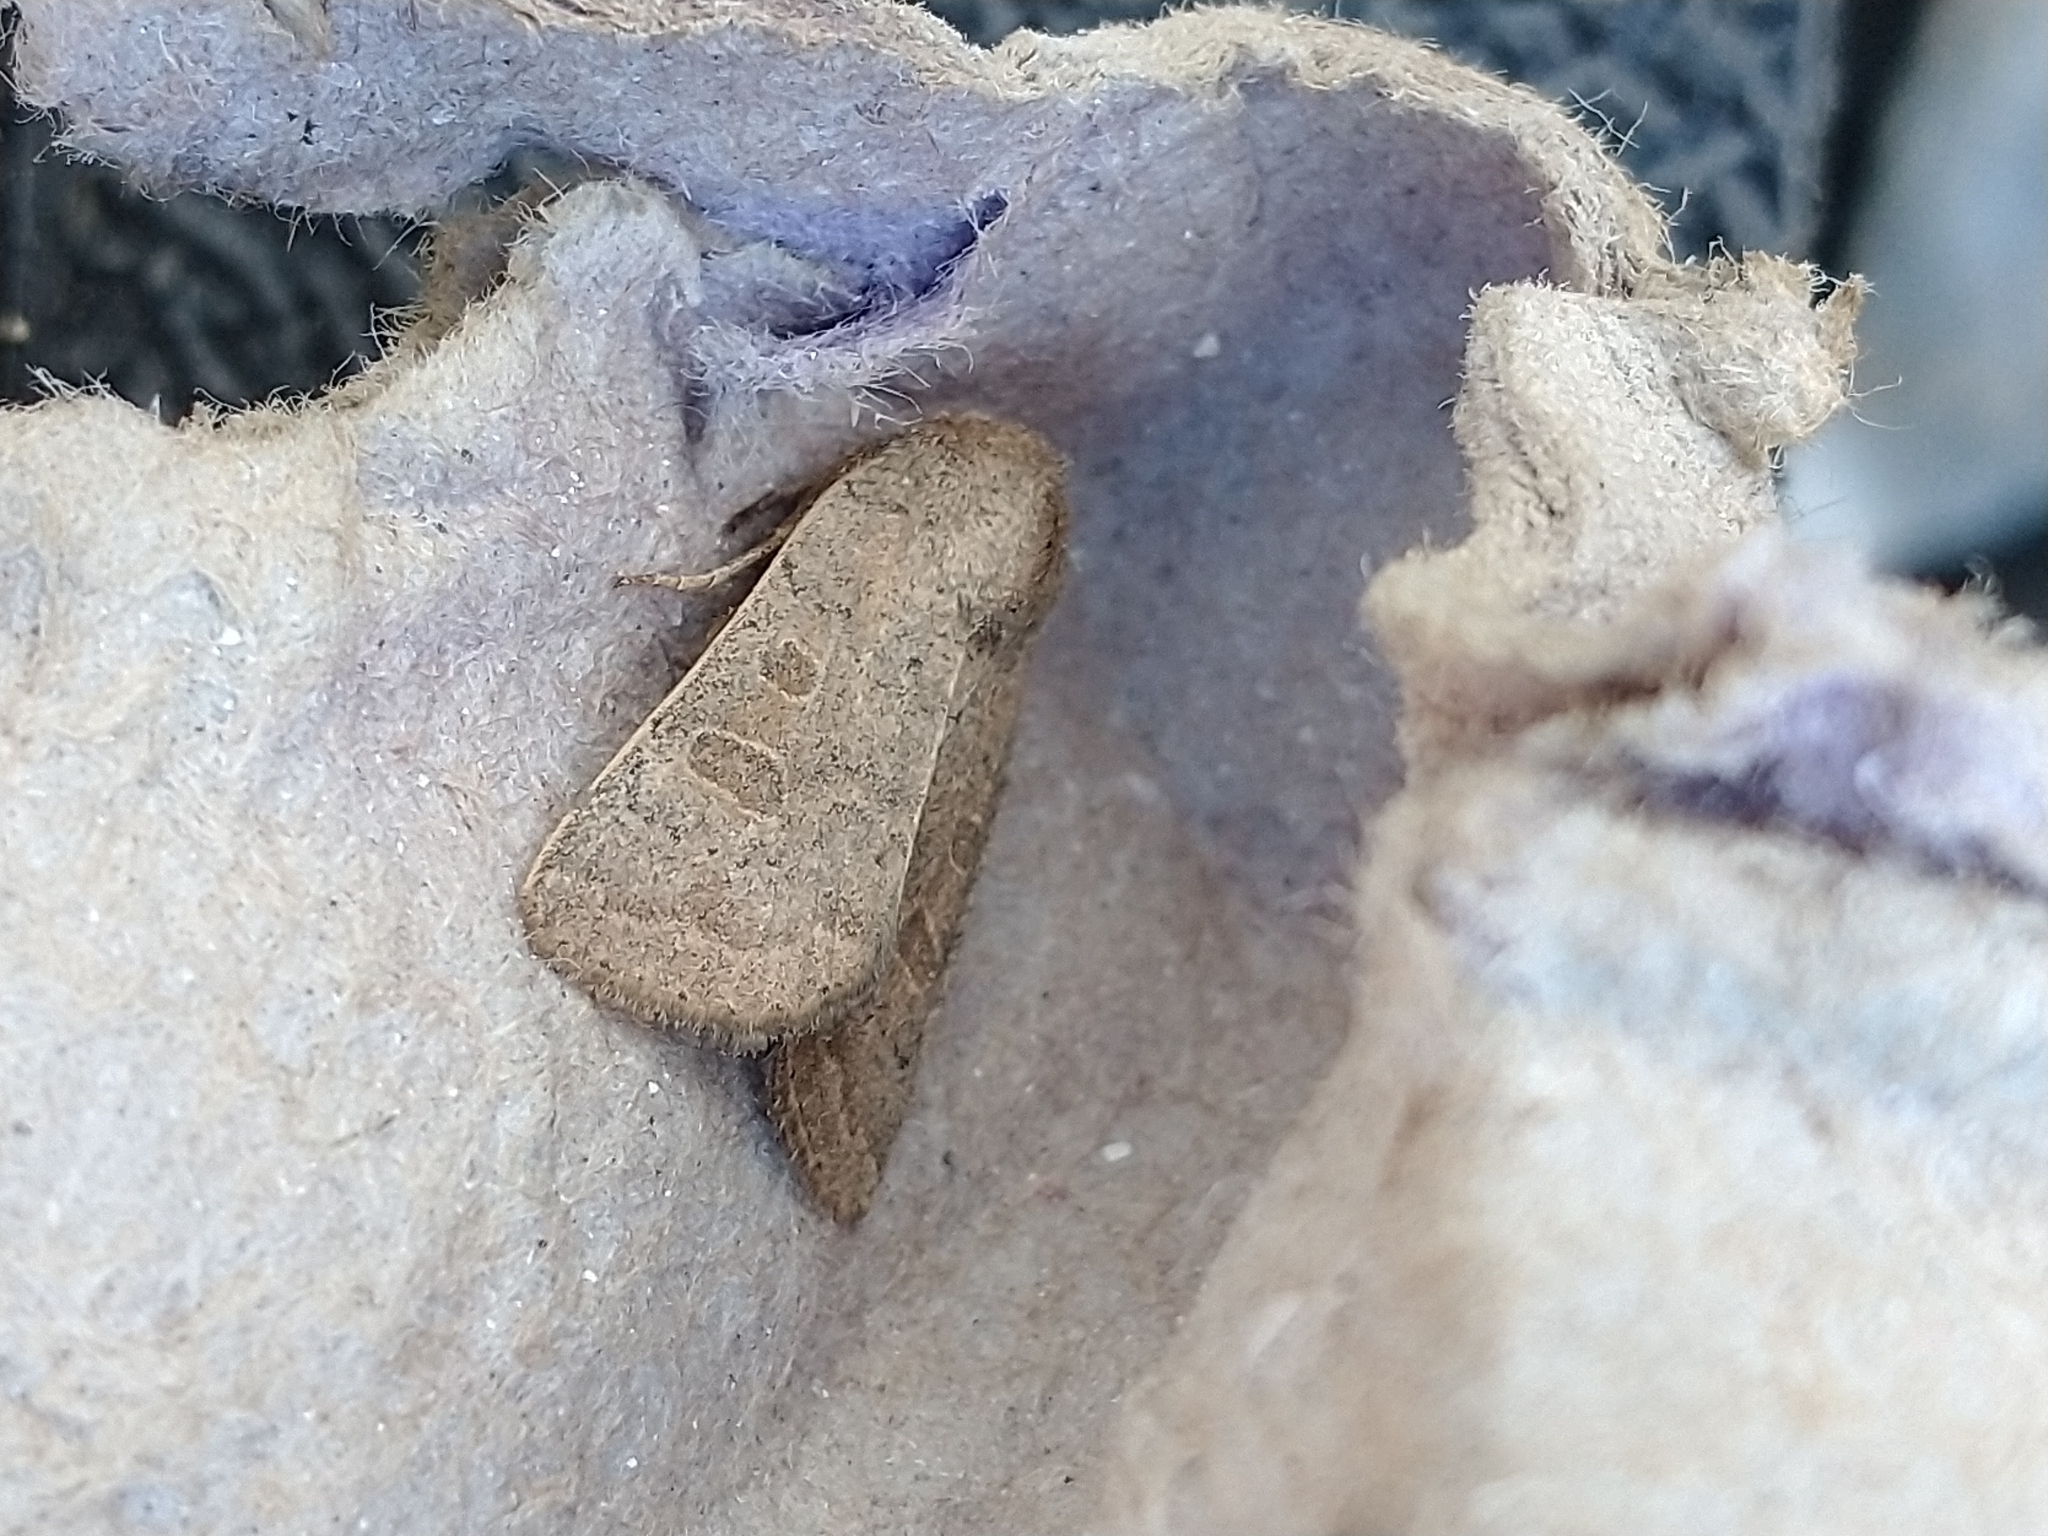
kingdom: Animalia
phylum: Arthropoda
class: Insecta
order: Lepidoptera
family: Noctuidae
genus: Hoplodrina
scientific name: Hoplodrina ambigua
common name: Vine's rustic
